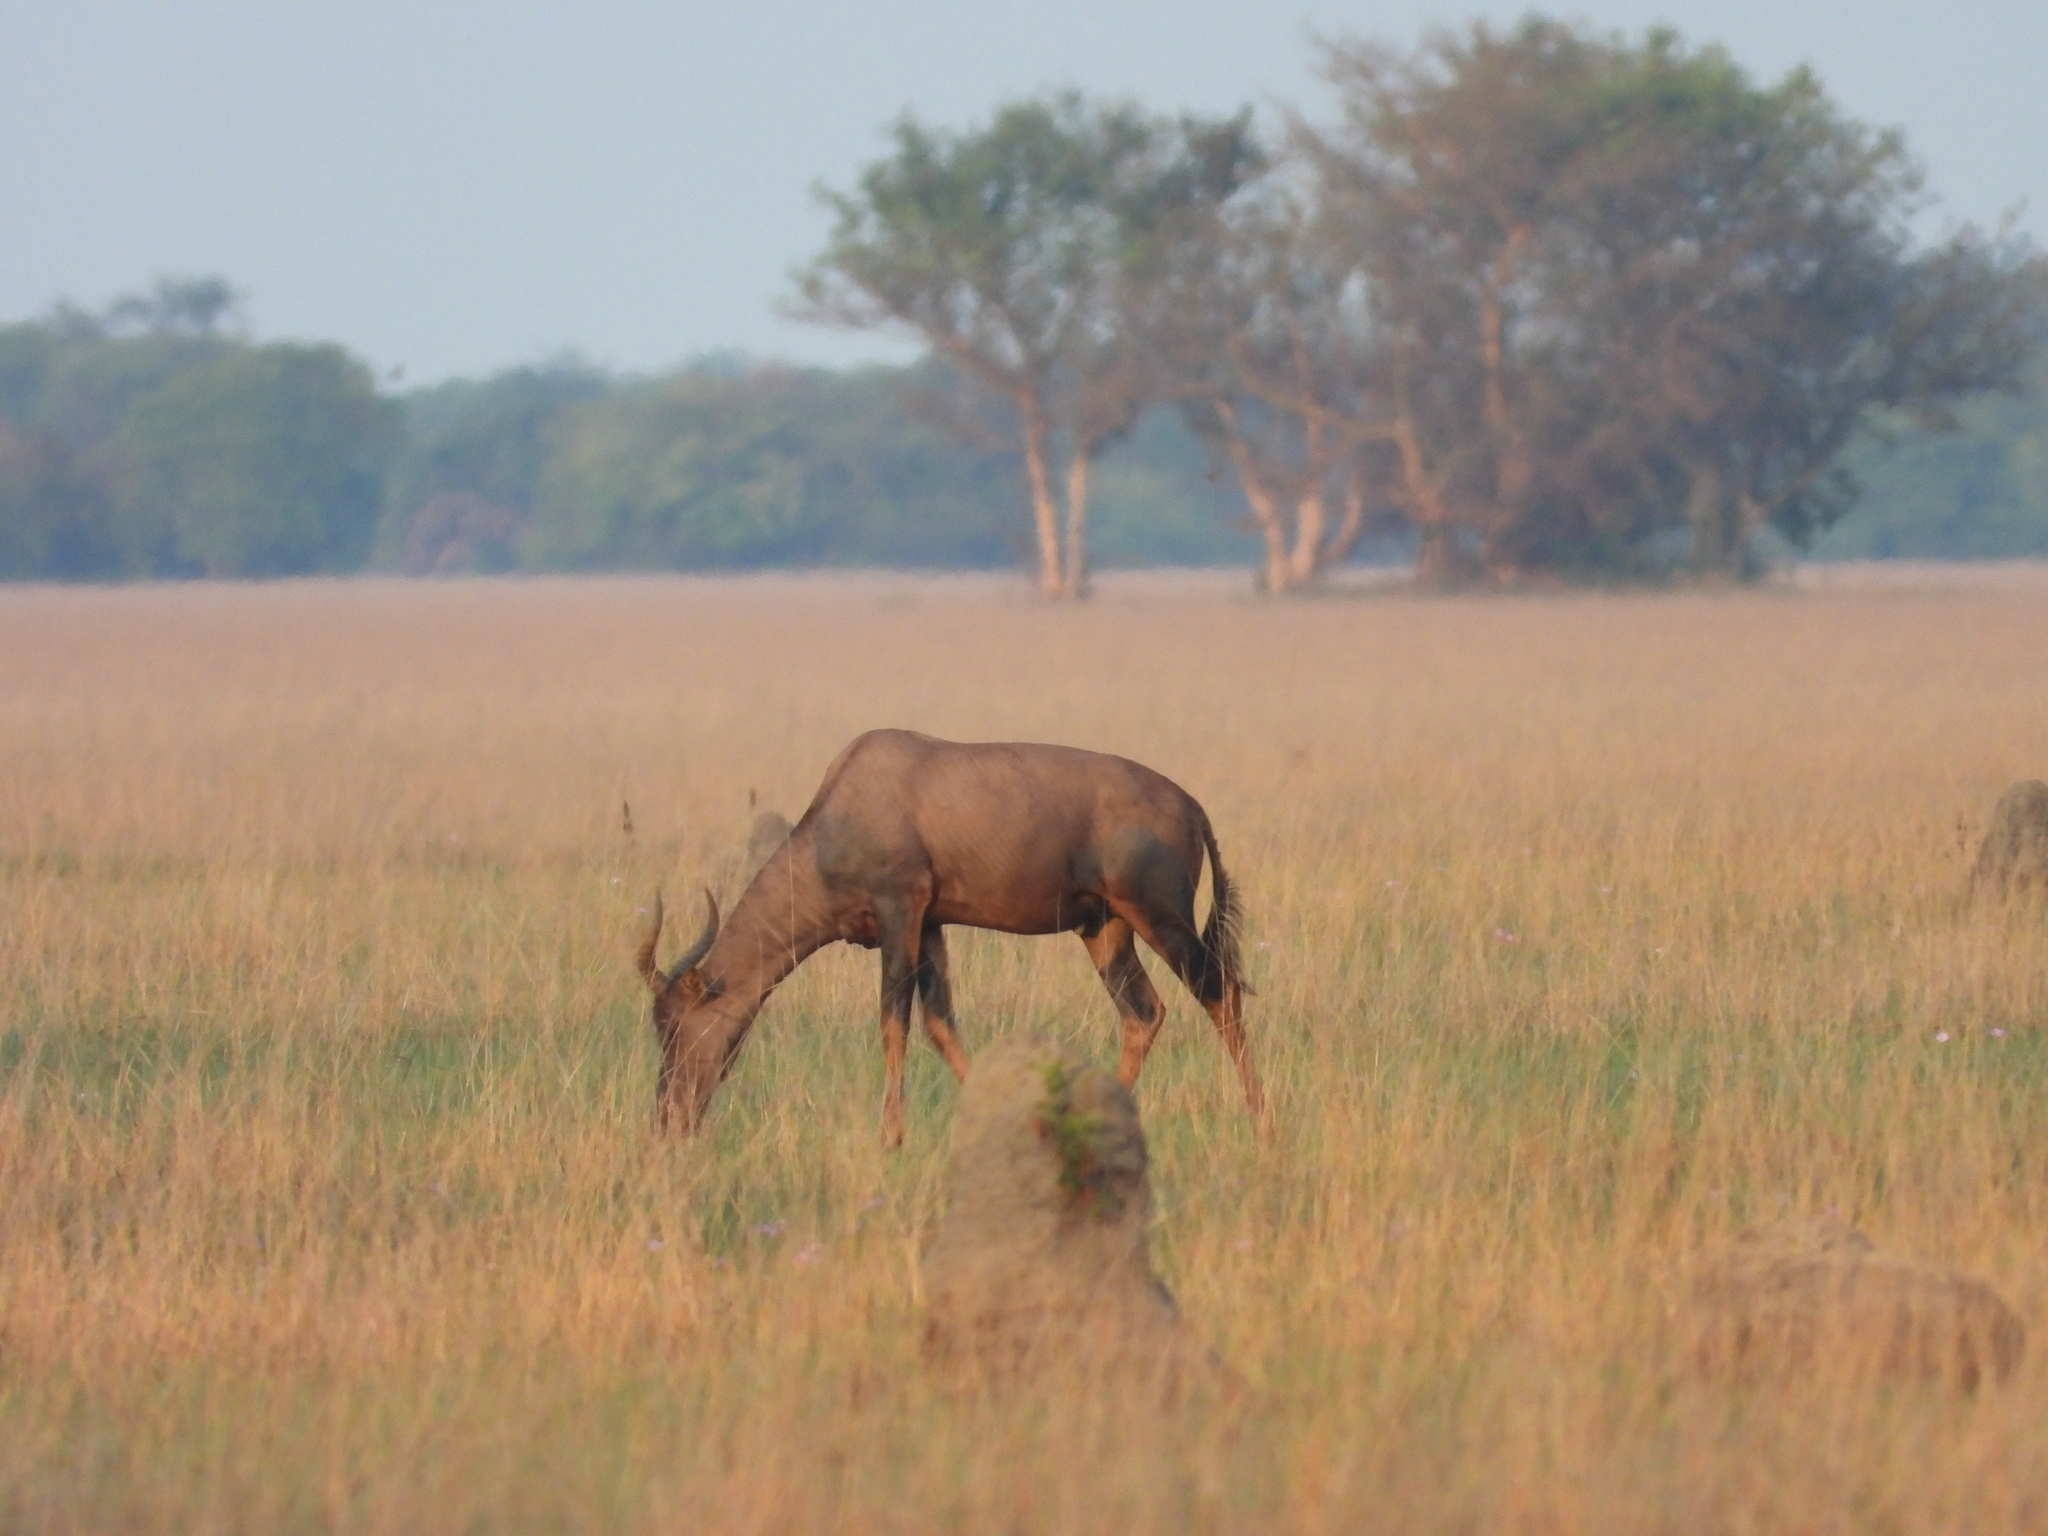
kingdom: Animalia
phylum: Chordata
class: Mammalia
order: Artiodactyla
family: Bovidae
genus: Damaliscus
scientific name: Damaliscus lunatus
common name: Common tsessebe
